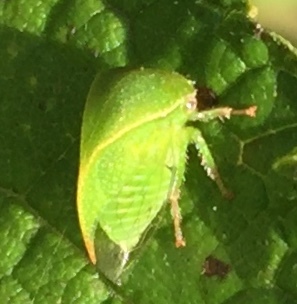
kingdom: Animalia
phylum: Arthropoda
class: Insecta
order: Hemiptera
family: Membracidae
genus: Spissistilus
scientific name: Spissistilus festina
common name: Membracid bug
